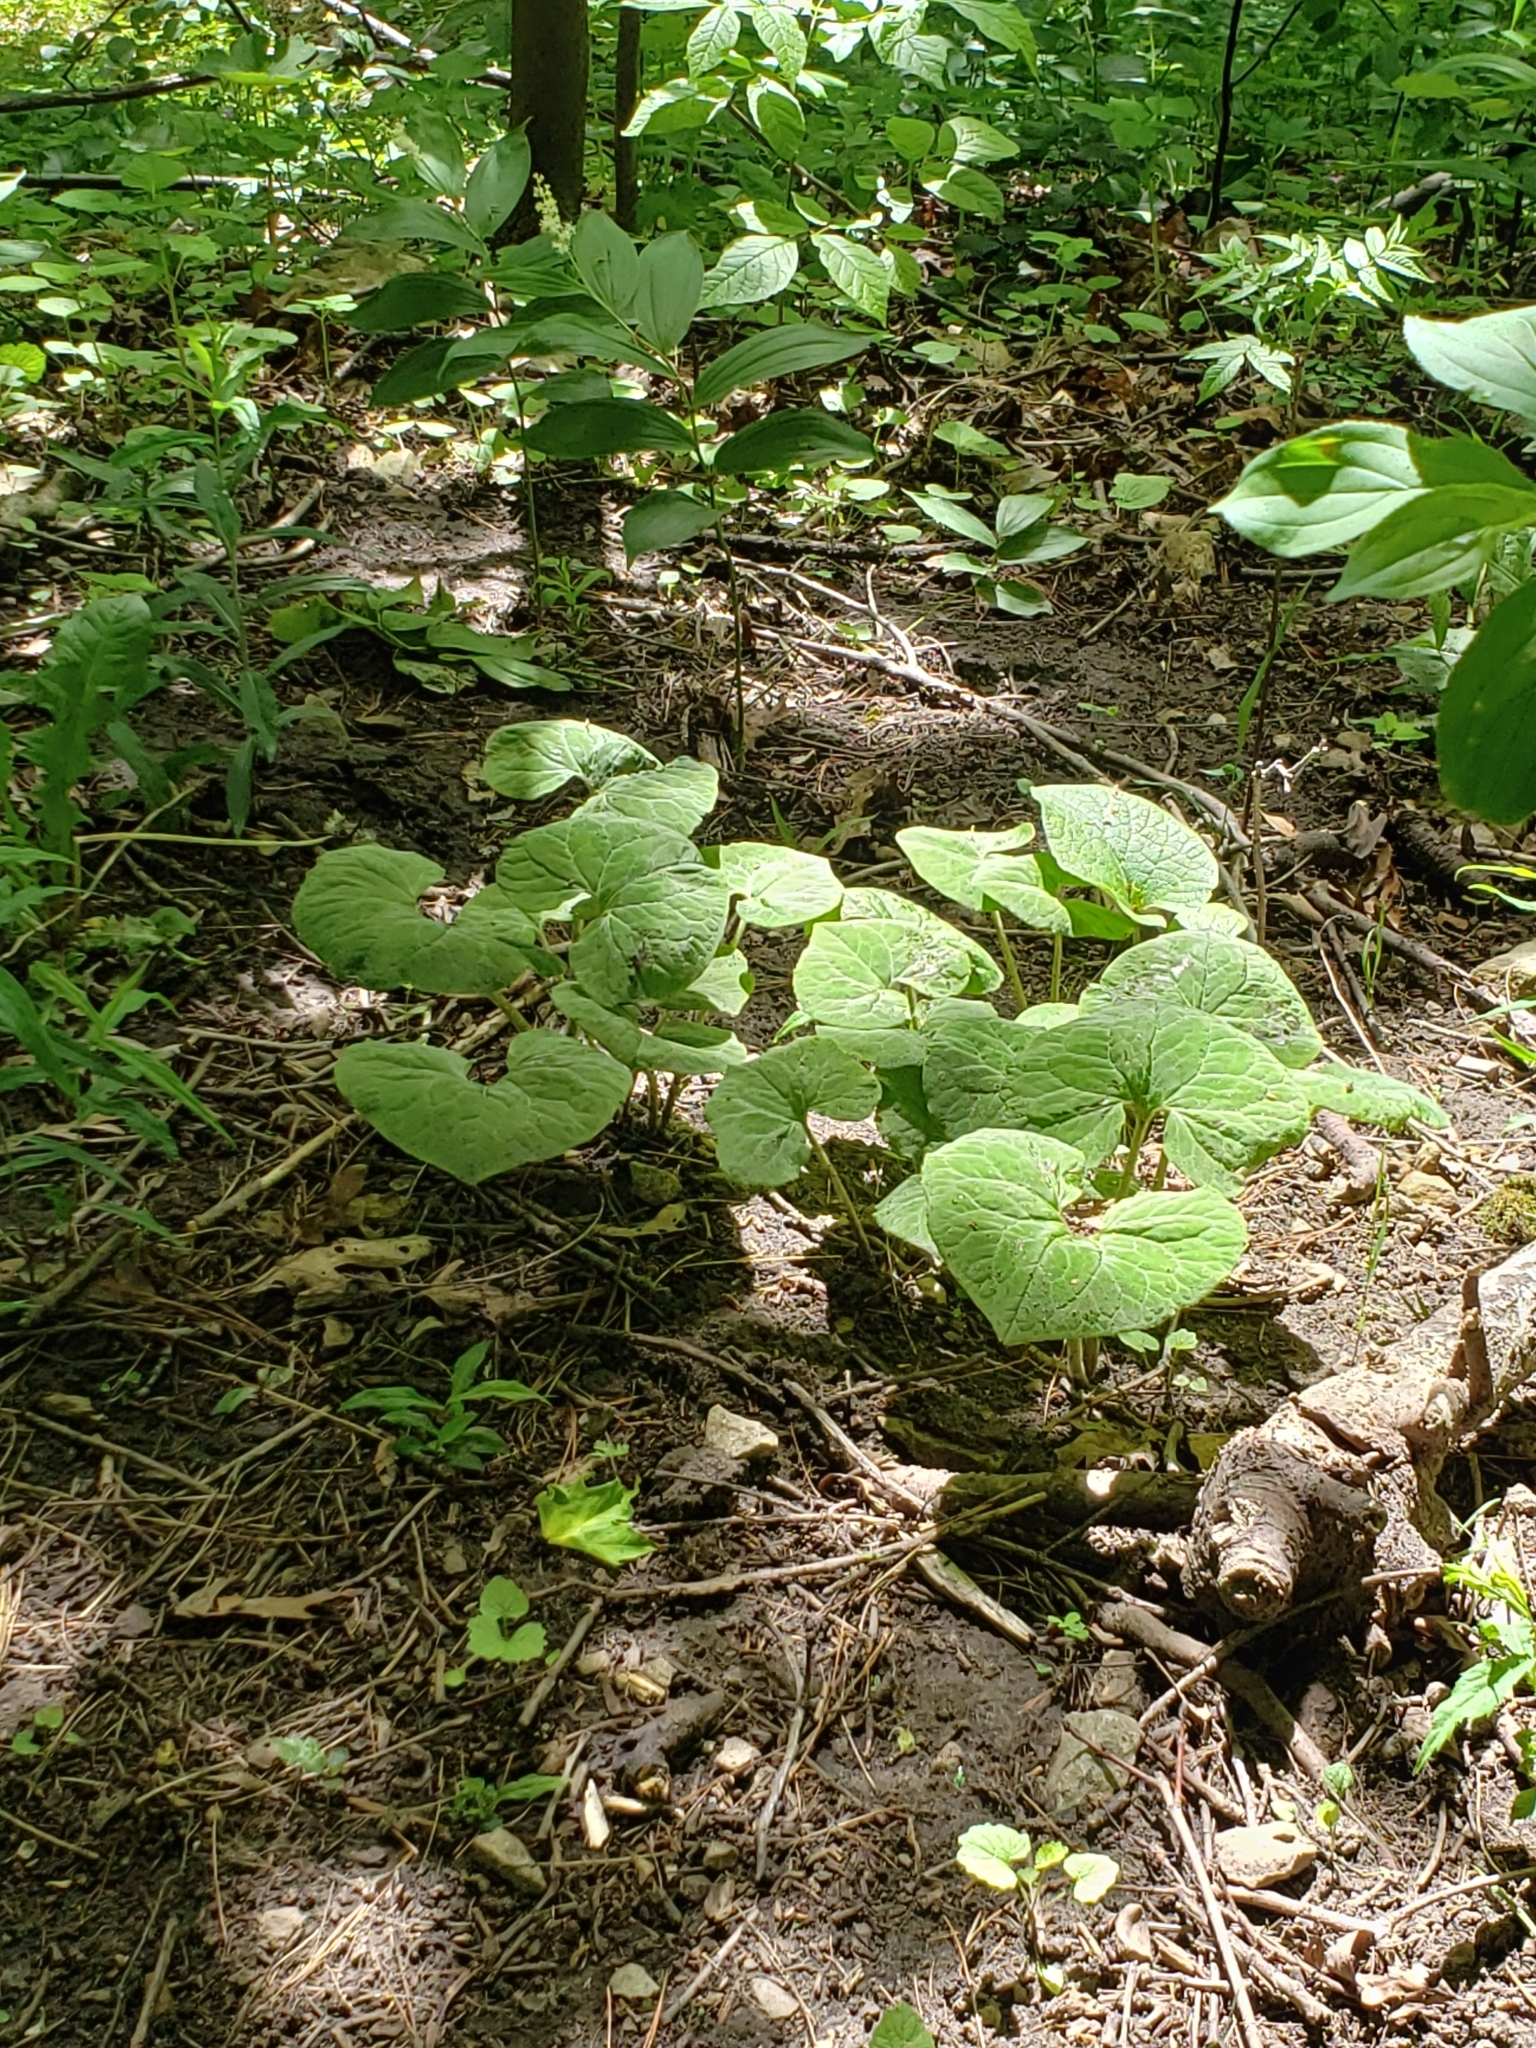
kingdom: Plantae
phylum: Tracheophyta
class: Magnoliopsida
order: Piperales
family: Aristolochiaceae
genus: Asarum
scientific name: Asarum canadense
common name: Wild ginger
